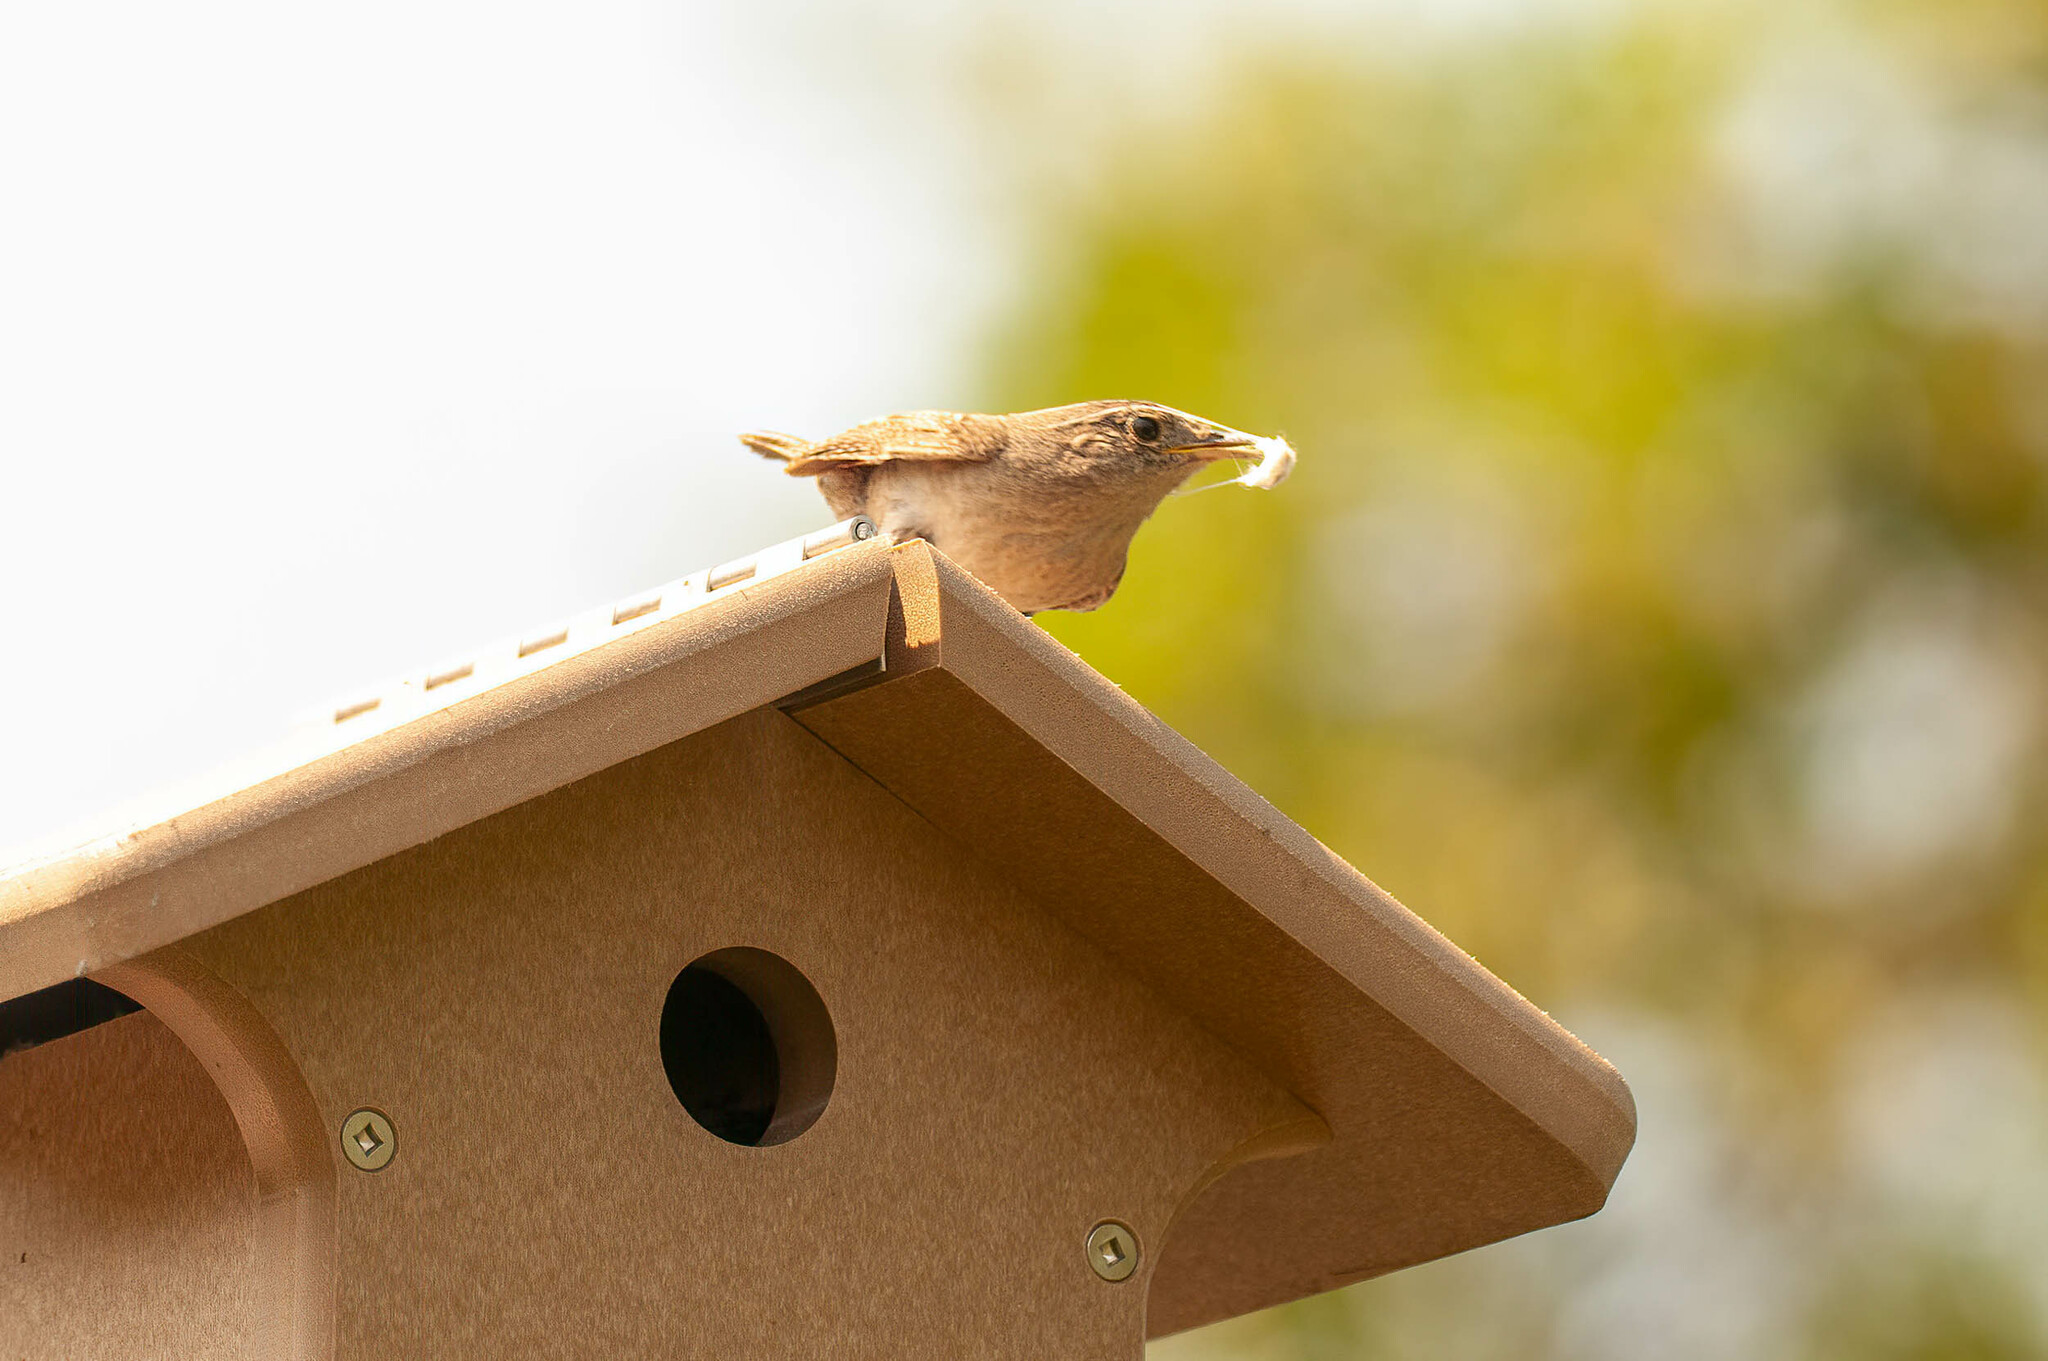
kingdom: Animalia
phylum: Chordata
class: Aves
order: Passeriformes
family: Troglodytidae
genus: Troglodytes
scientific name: Troglodytes aedon
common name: House wren
